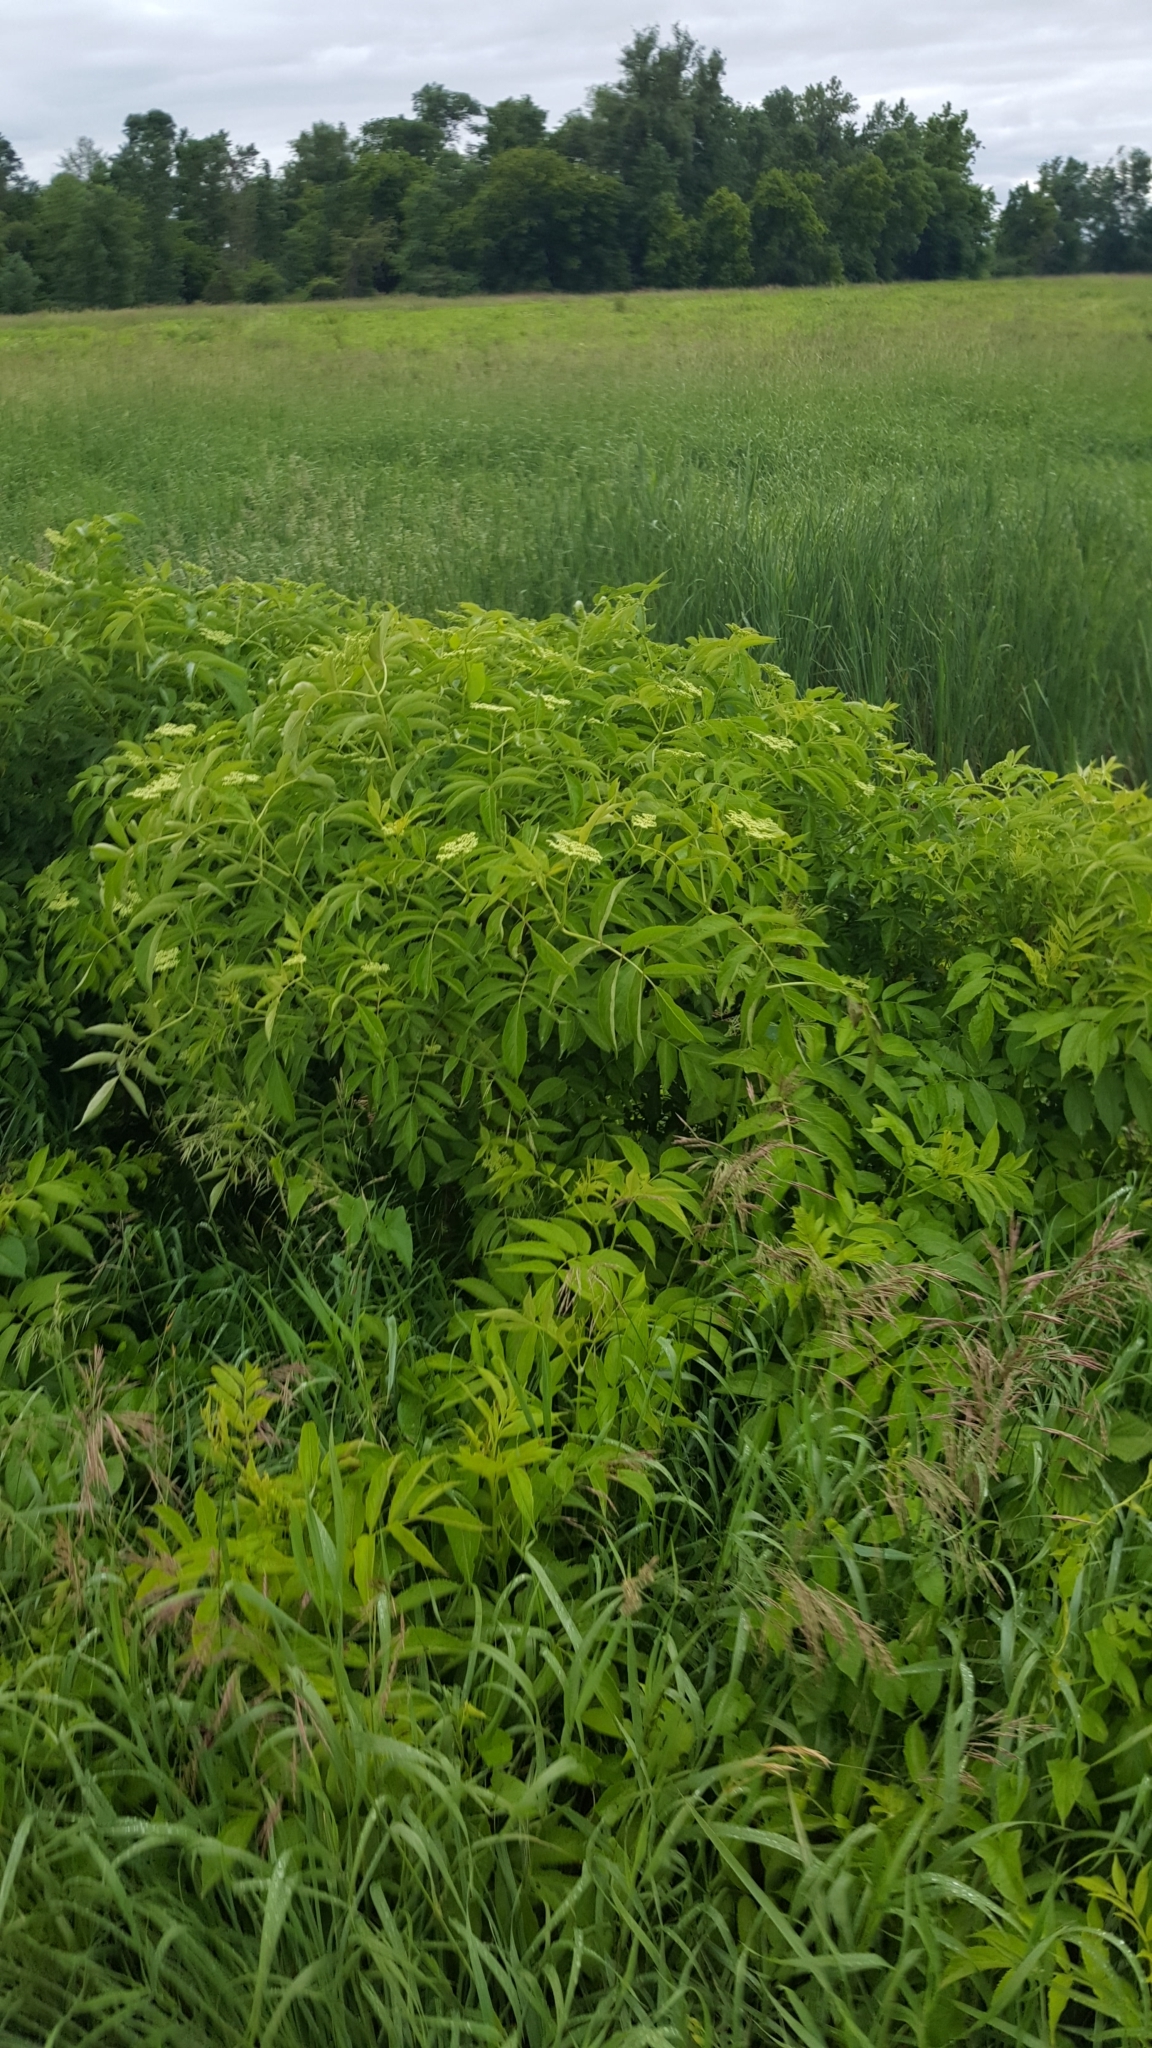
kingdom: Plantae
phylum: Tracheophyta
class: Magnoliopsida
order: Dipsacales
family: Viburnaceae
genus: Sambucus
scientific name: Sambucus canadensis
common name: American elder
